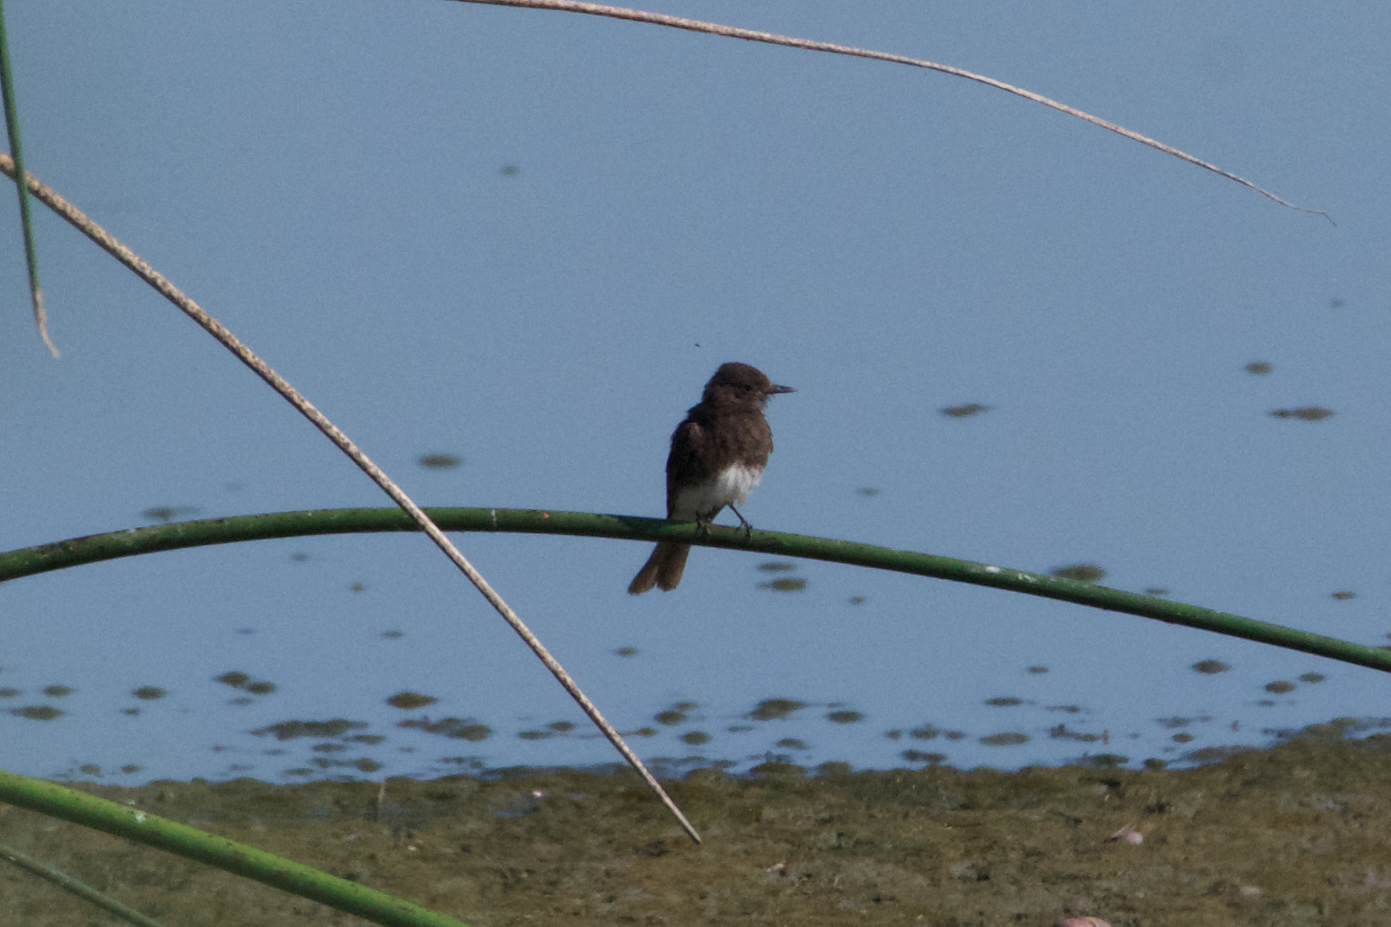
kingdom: Animalia
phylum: Chordata
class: Aves
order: Passeriformes
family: Tyrannidae
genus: Sayornis
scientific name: Sayornis nigricans
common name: Black phoebe
